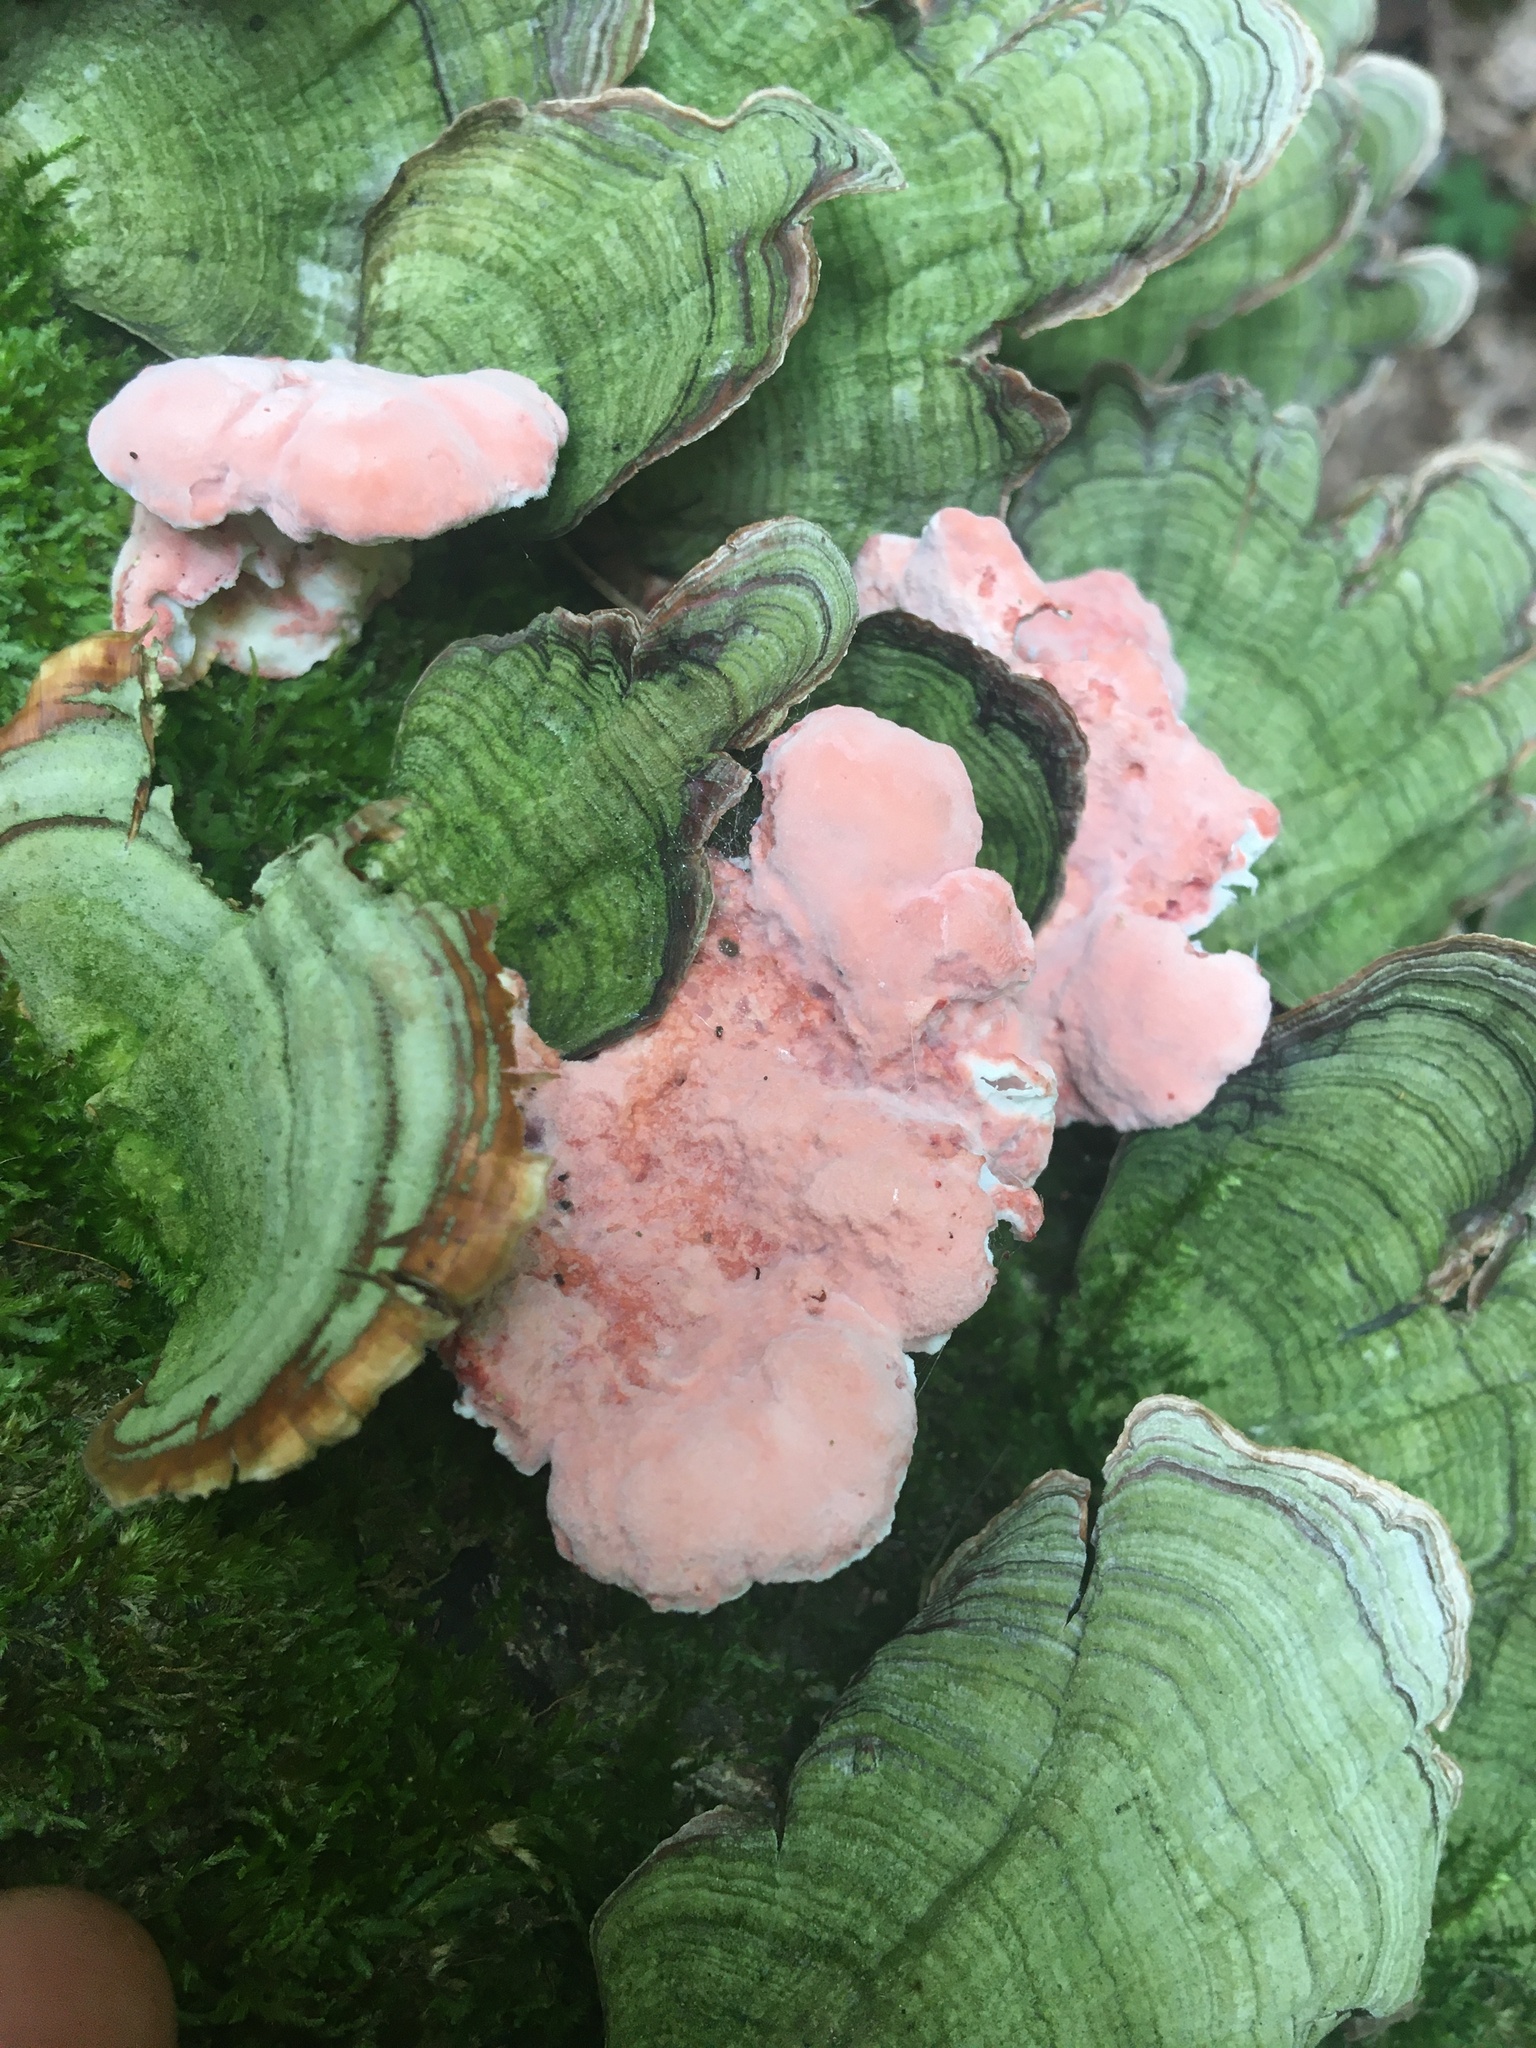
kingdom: Fungi
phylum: Basidiomycota
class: Agaricomycetes
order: Polyporales
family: Irpicaceae
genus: Byssomerulius
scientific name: Byssomerulius incarnatus
